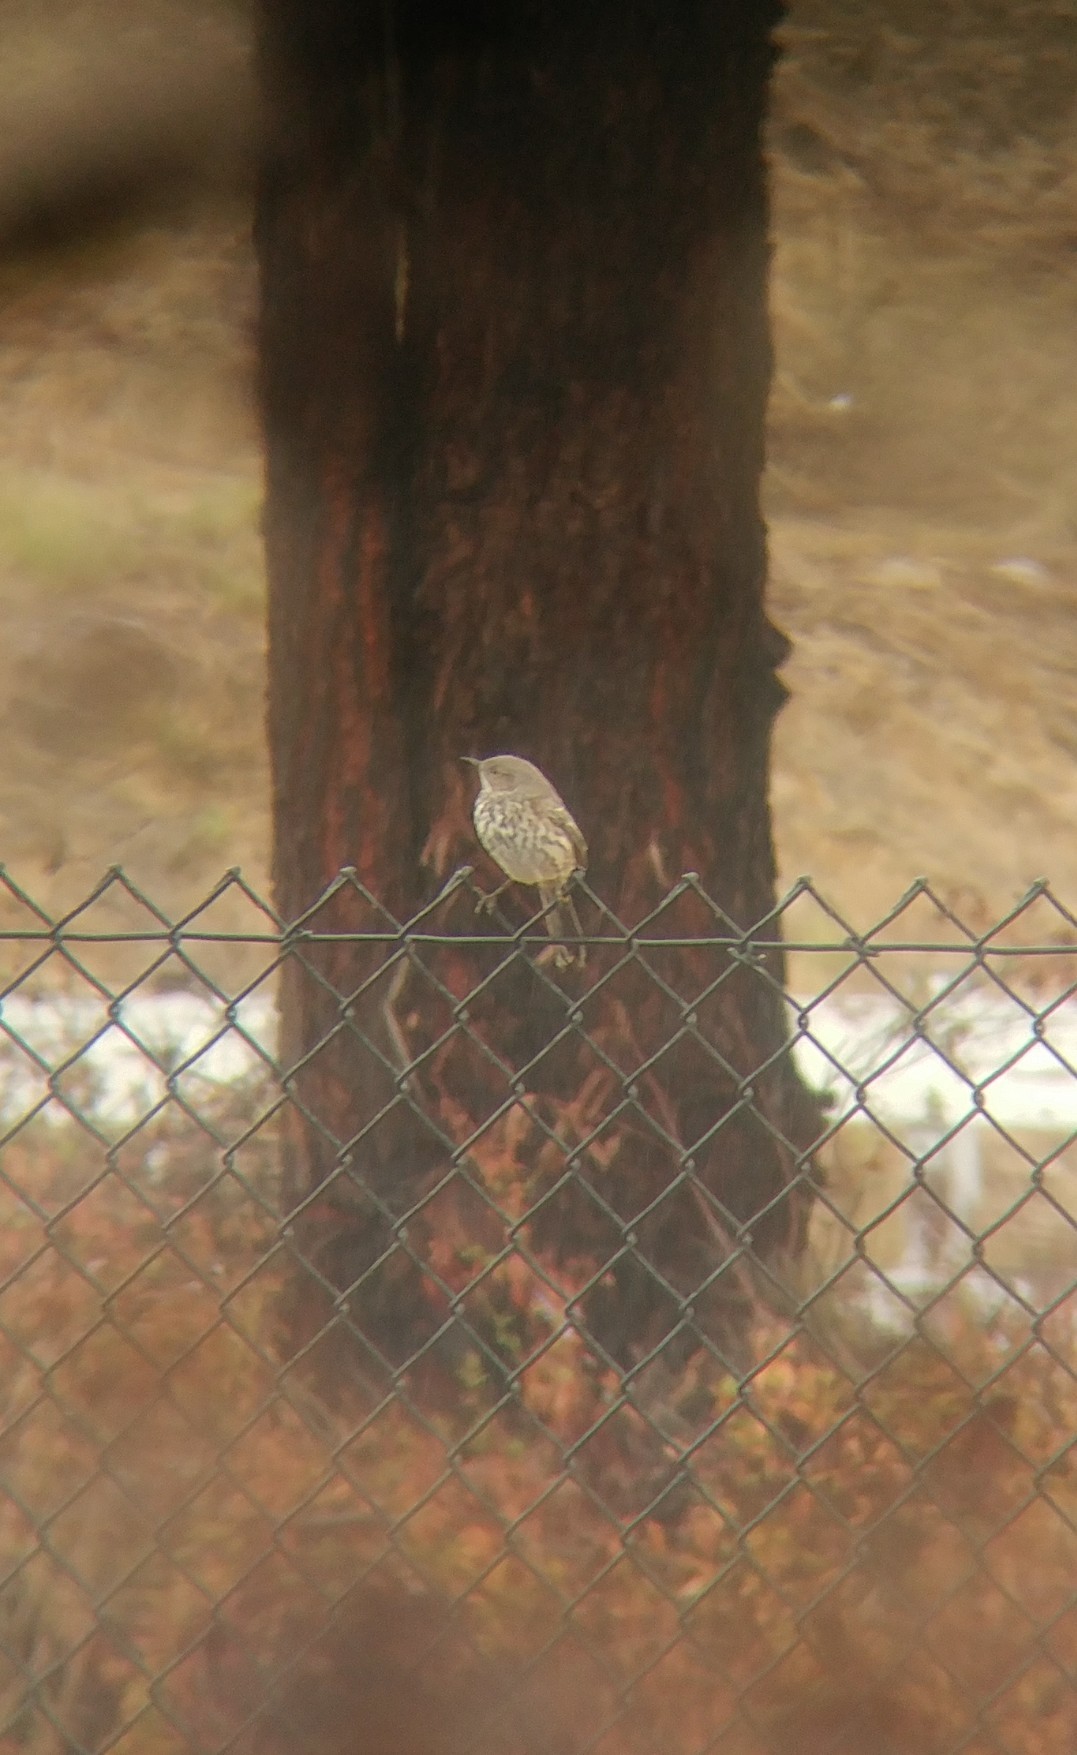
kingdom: Animalia
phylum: Chordata
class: Aves
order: Passeriformes
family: Mimidae
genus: Oreoscoptes
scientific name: Oreoscoptes montanus
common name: Sage thrasher
